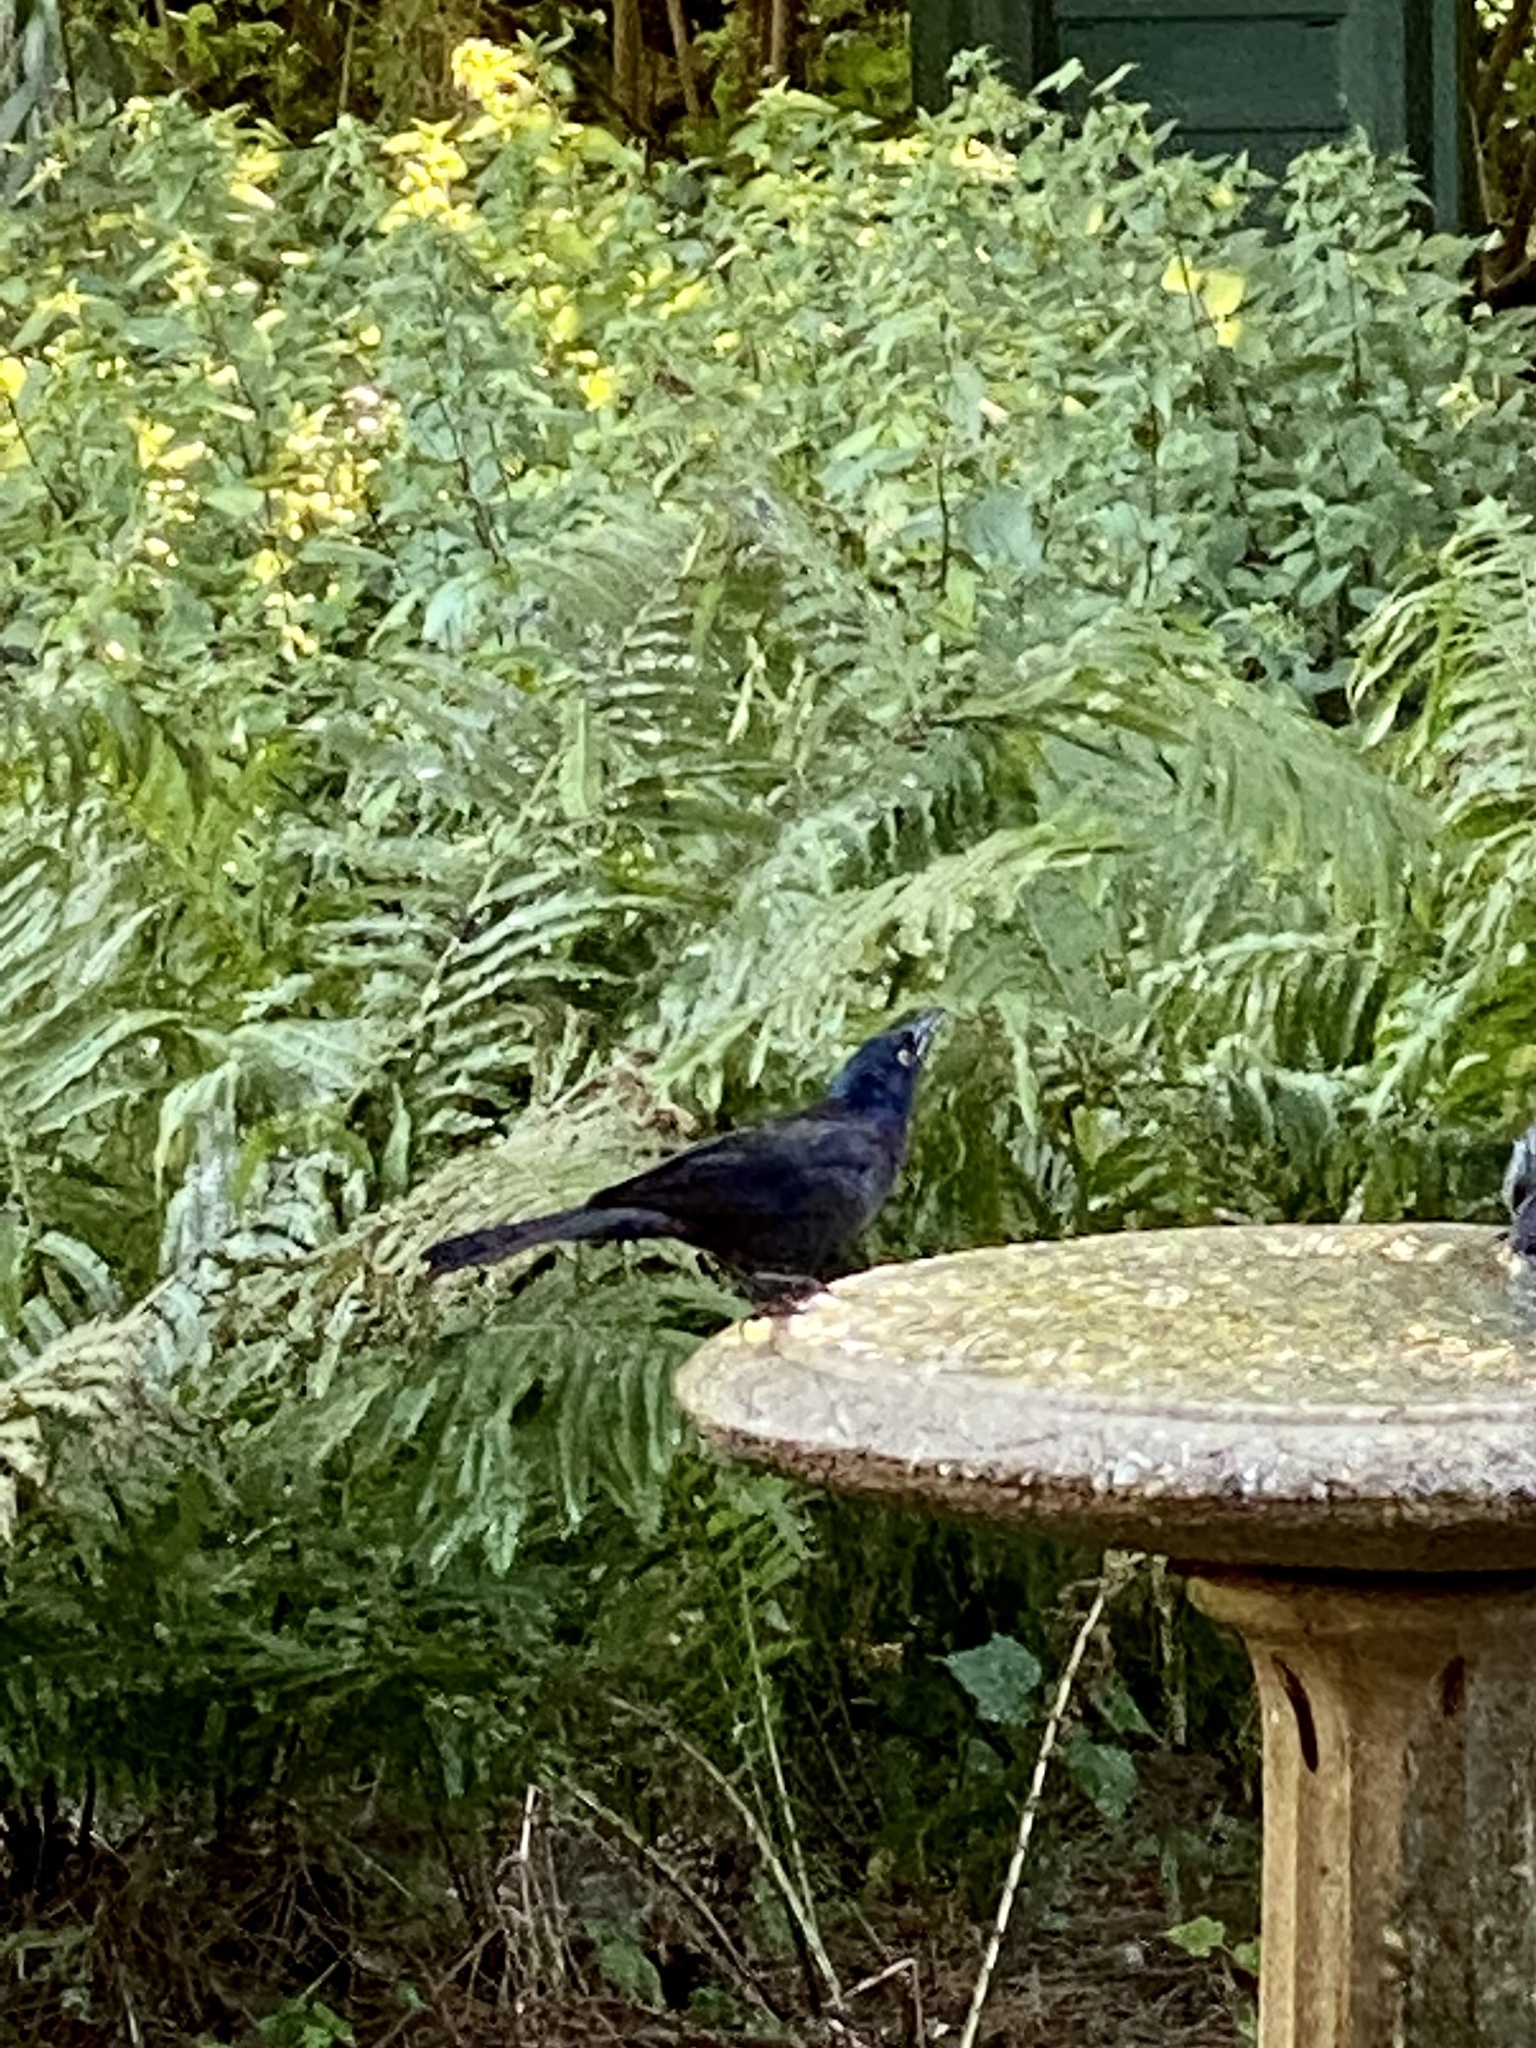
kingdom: Animalia
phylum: Chordata
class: Aves
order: Passeriformes
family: Icteridae
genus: Quiscalus
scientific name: Quiscalus quiscula
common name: Common grackle
